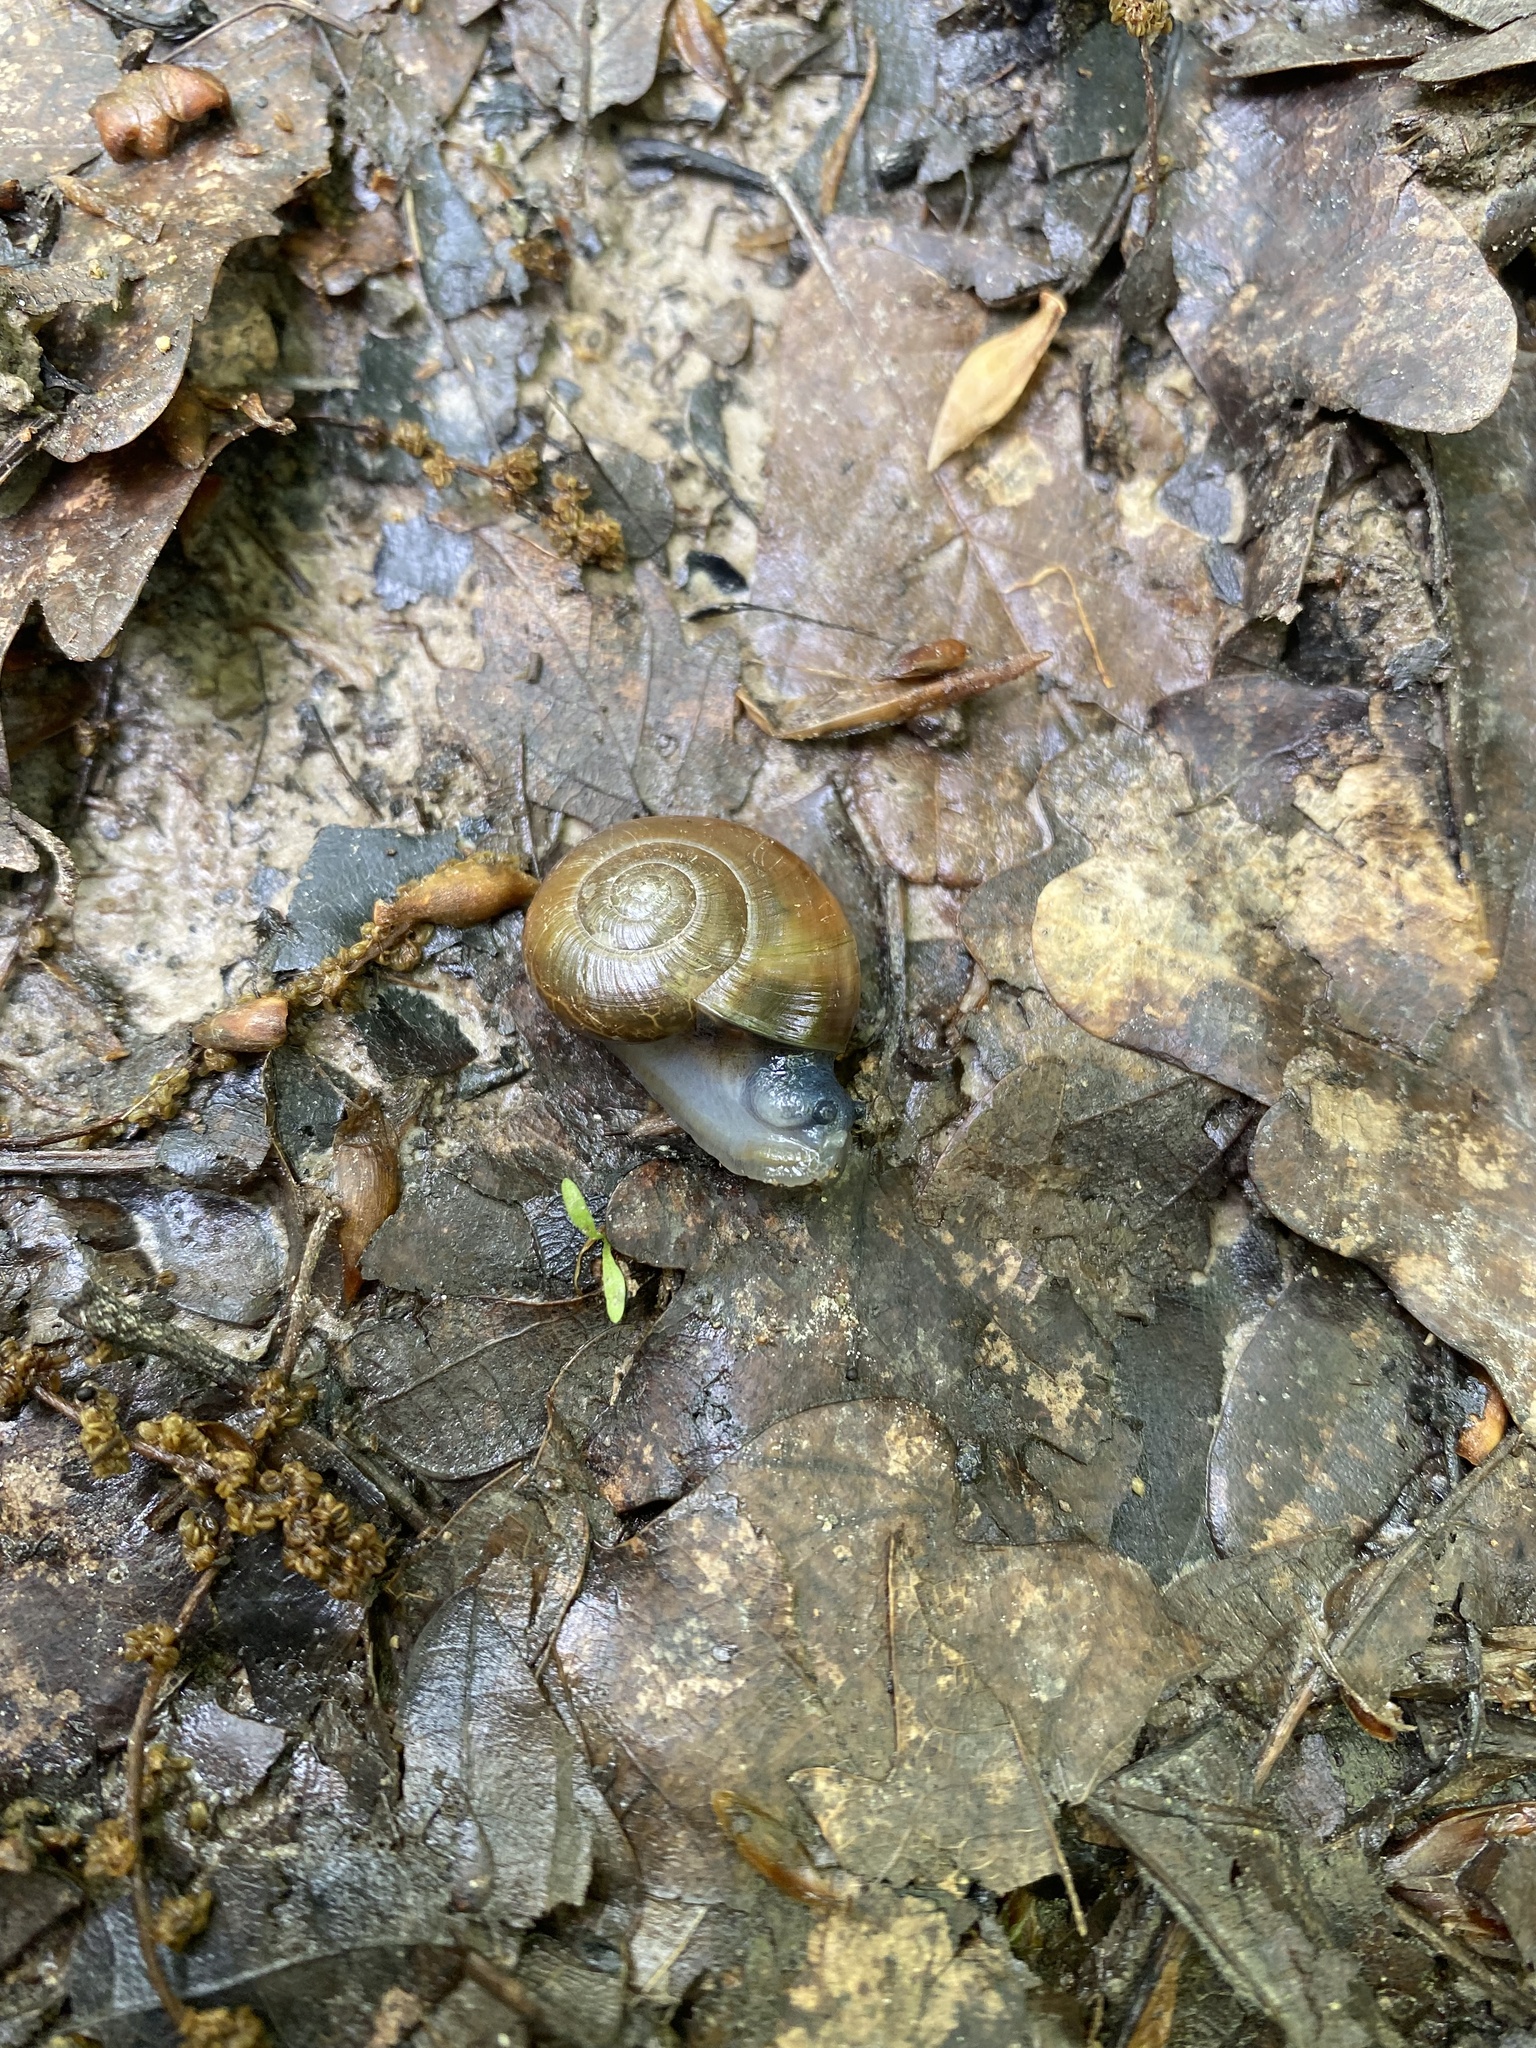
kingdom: Animalia
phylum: Mollusca
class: Gastropoda
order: Stylommatophora
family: Oxychilidae
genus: Schistophallus
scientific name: Schistophallus horsti
